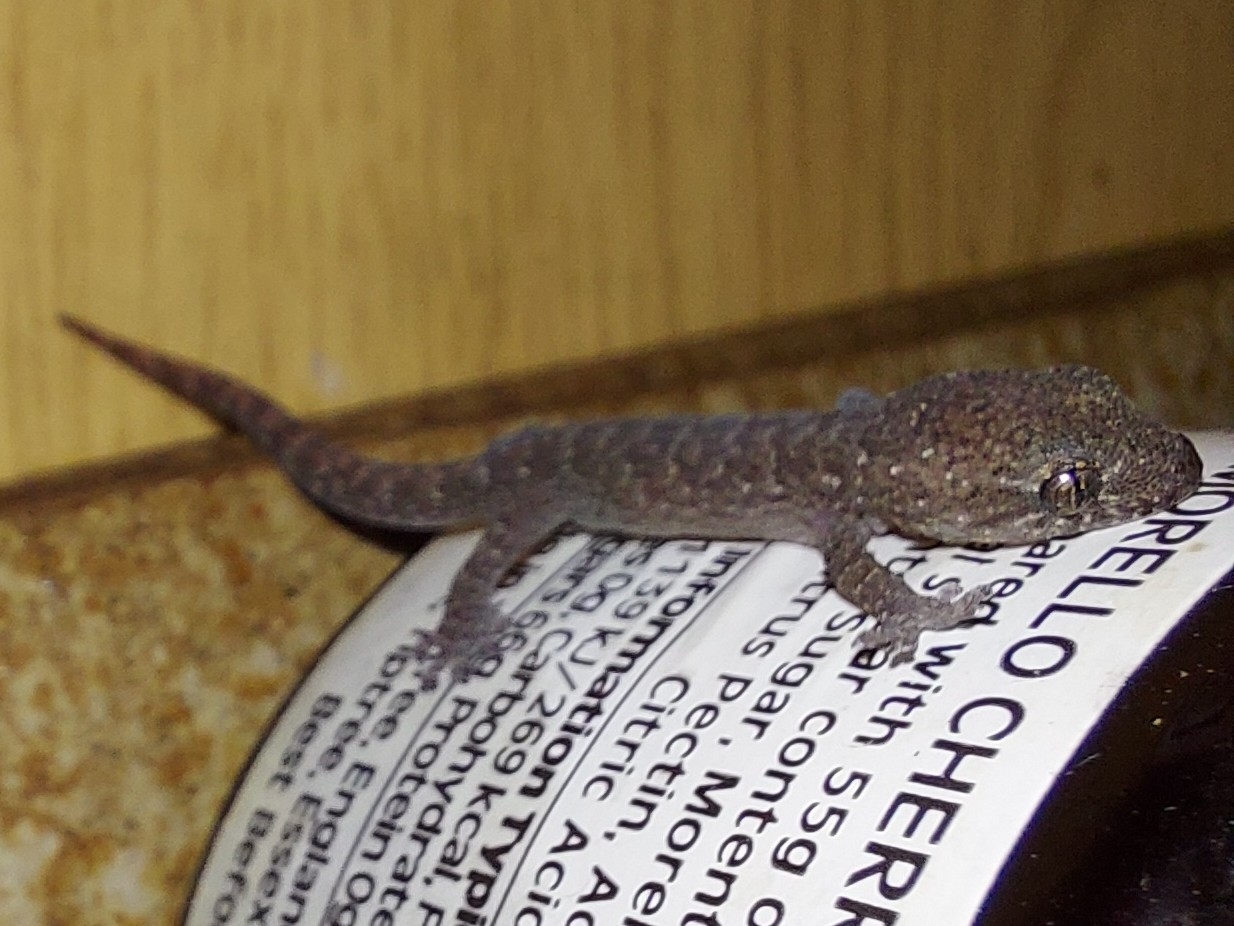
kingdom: Animalia
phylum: Chordata
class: Squamata
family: Gekkonidae
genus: Afrogecko
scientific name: Afrogecko porphyreus
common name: Marbled leaf-toed gecko
